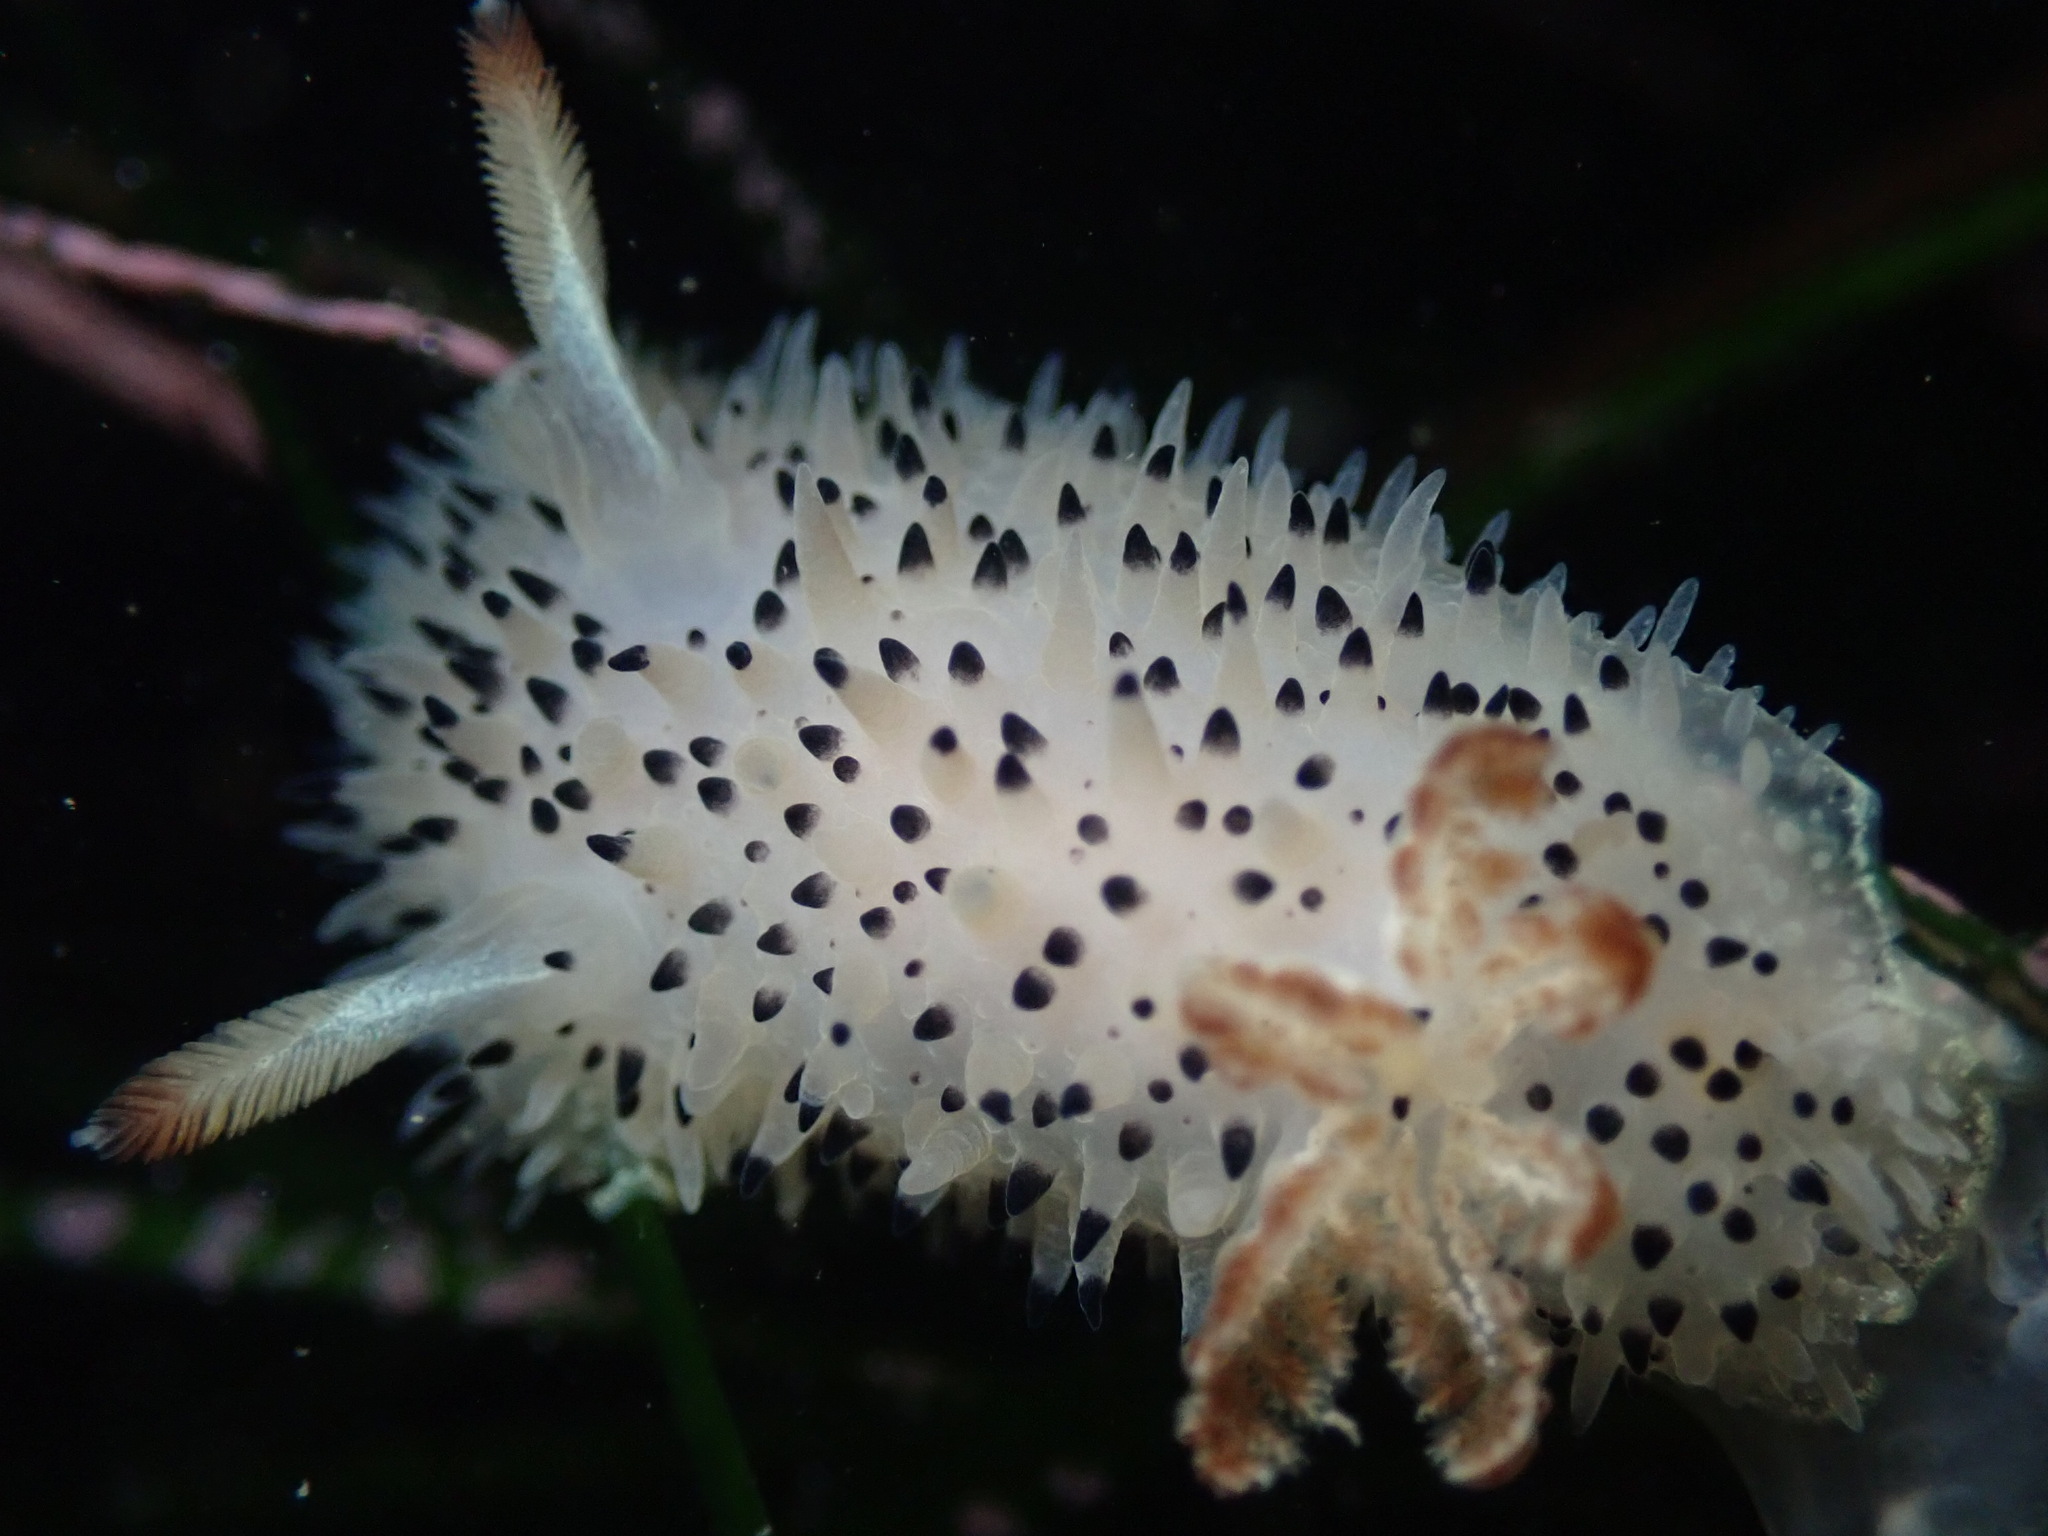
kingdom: Animalia
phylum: Mollusca
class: Gastropoda
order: Nudibranchia
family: Onchidorididae
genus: Acanthodoris
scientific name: Acanthodoris rhodoceras
